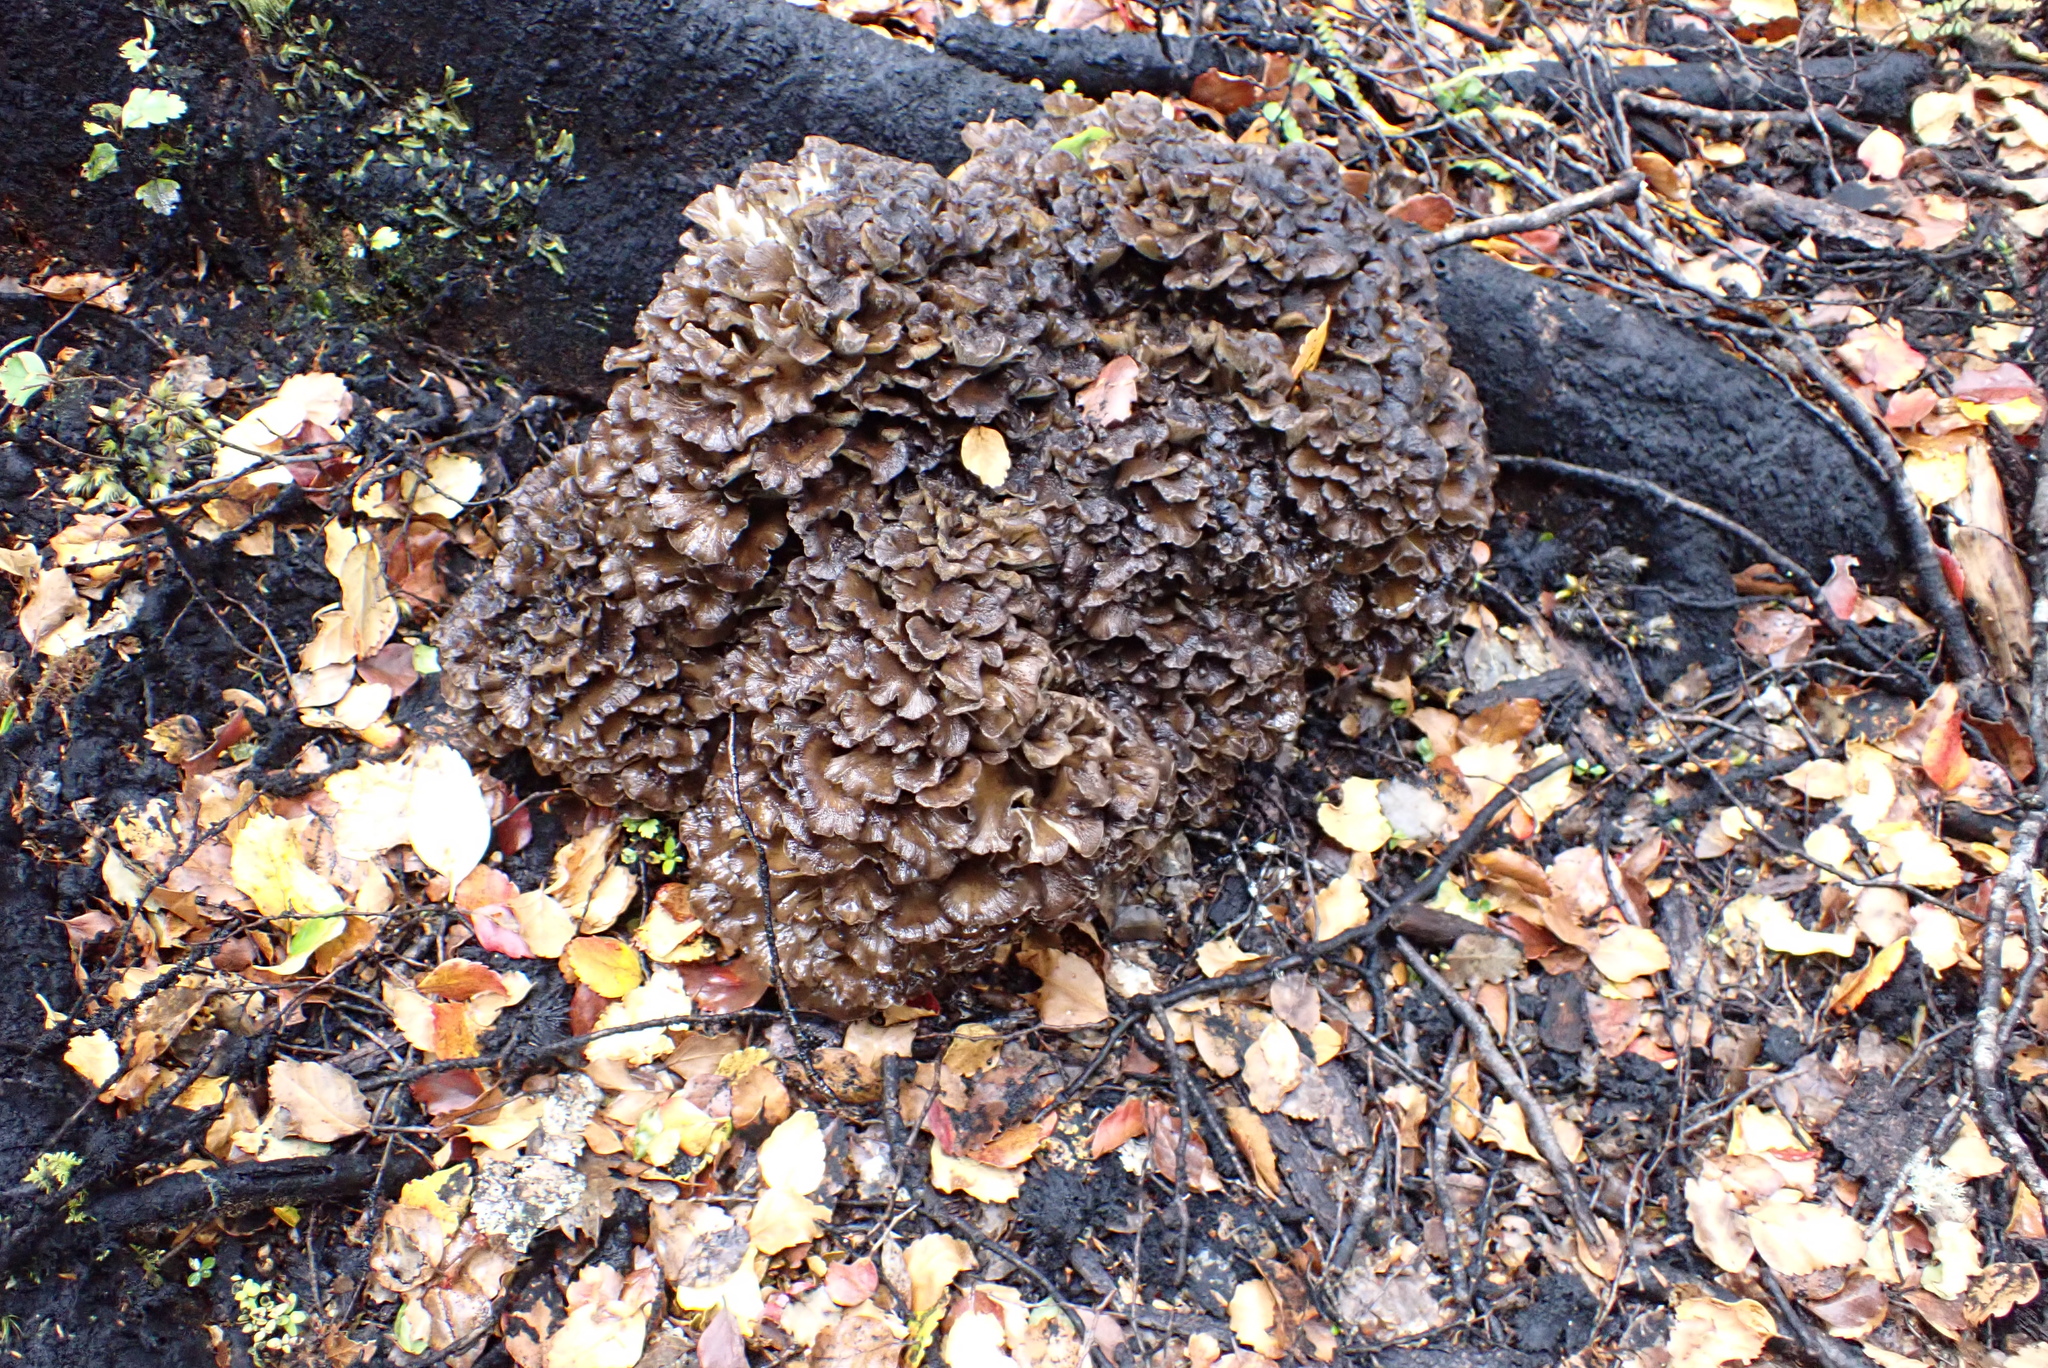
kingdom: Fungi
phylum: Basidiomycota
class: Agaricomycetes
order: Polyporales
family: Grifolaceae
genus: Grifola
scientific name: Grifola colensoi
